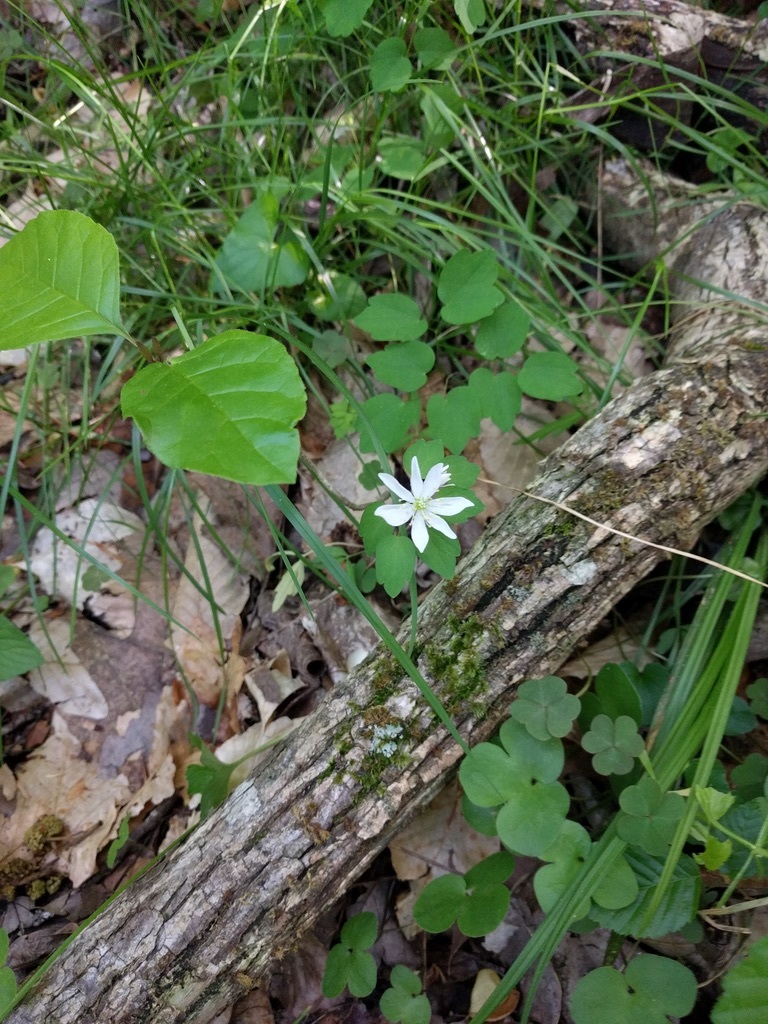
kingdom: Plantae
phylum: Tracheophyta
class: Magnoliopsida
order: Ranunculales
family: Ranunculaceae
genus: Thalictrum
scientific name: Thalictrum thalictroides
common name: Rue-anemone
